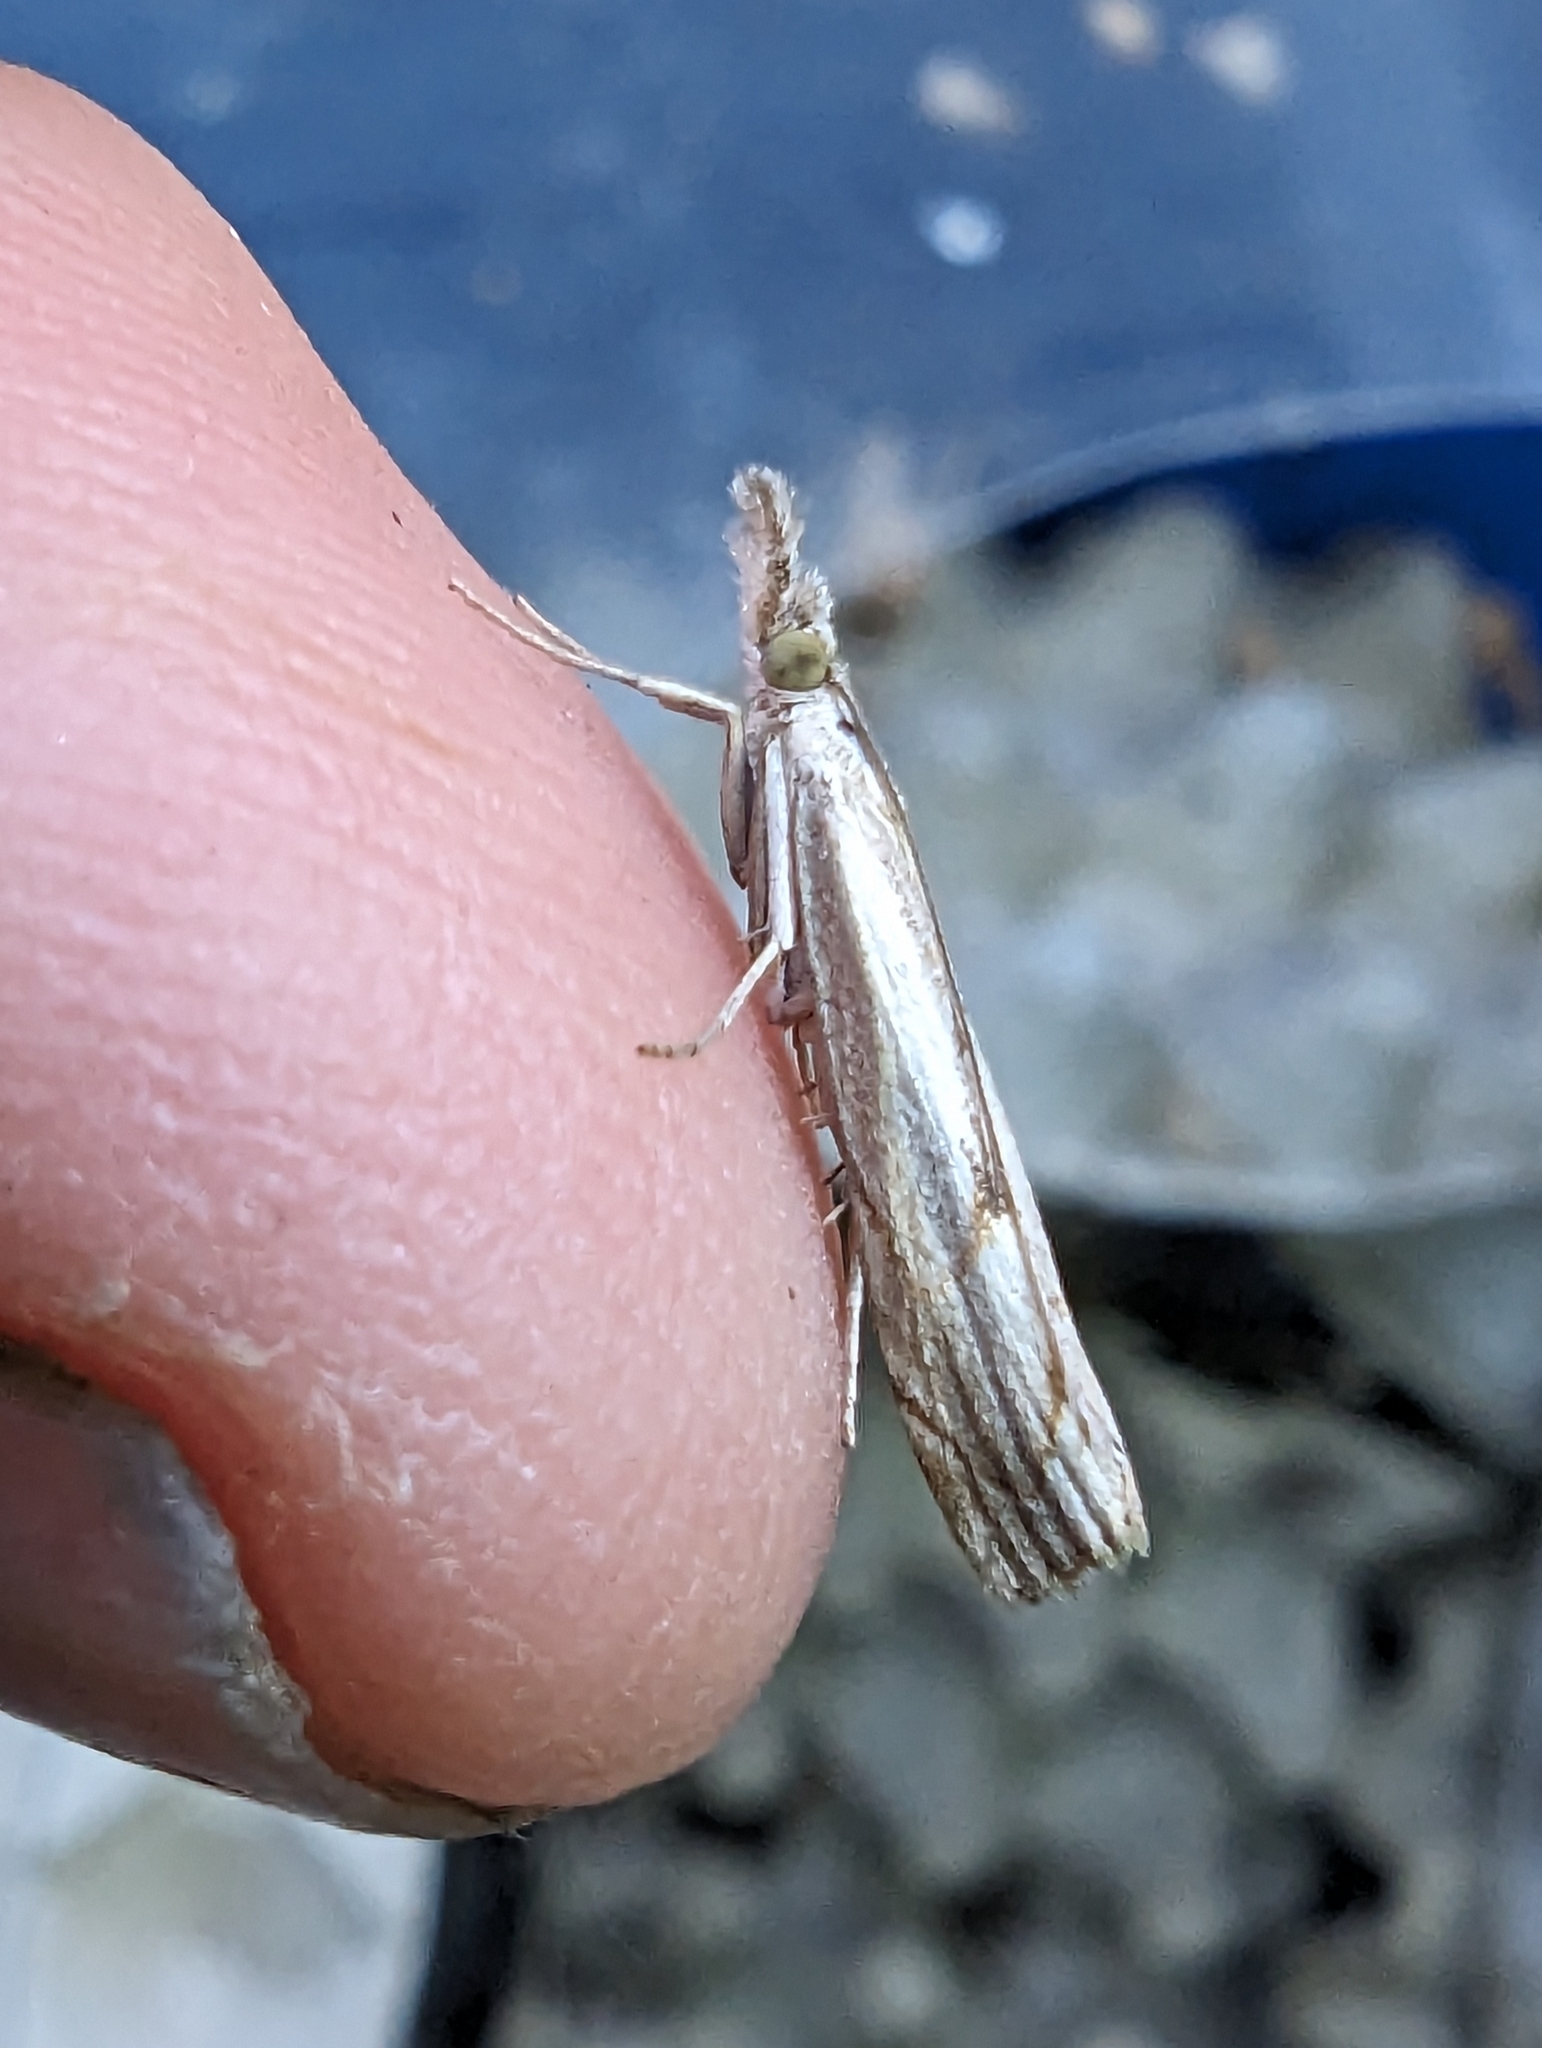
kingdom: Animalia
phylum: Arthropoda
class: Insecta
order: Lepidoptera
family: Crambidae
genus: Agriphila
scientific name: Agriphila geniculea
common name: Elbow-stripe grass-veneer
